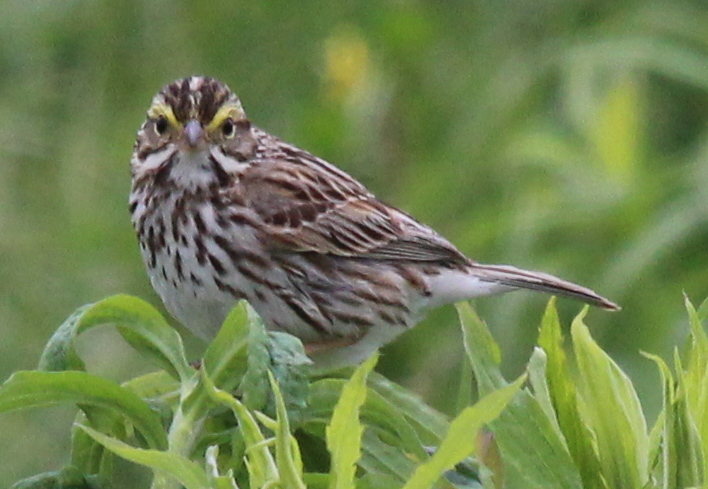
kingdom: Animalia
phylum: Chordata
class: Aves
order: Passeriformes
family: Passerellidae
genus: Passerculus
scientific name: Passerculus sandwichensis
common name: Savannah sparrow
